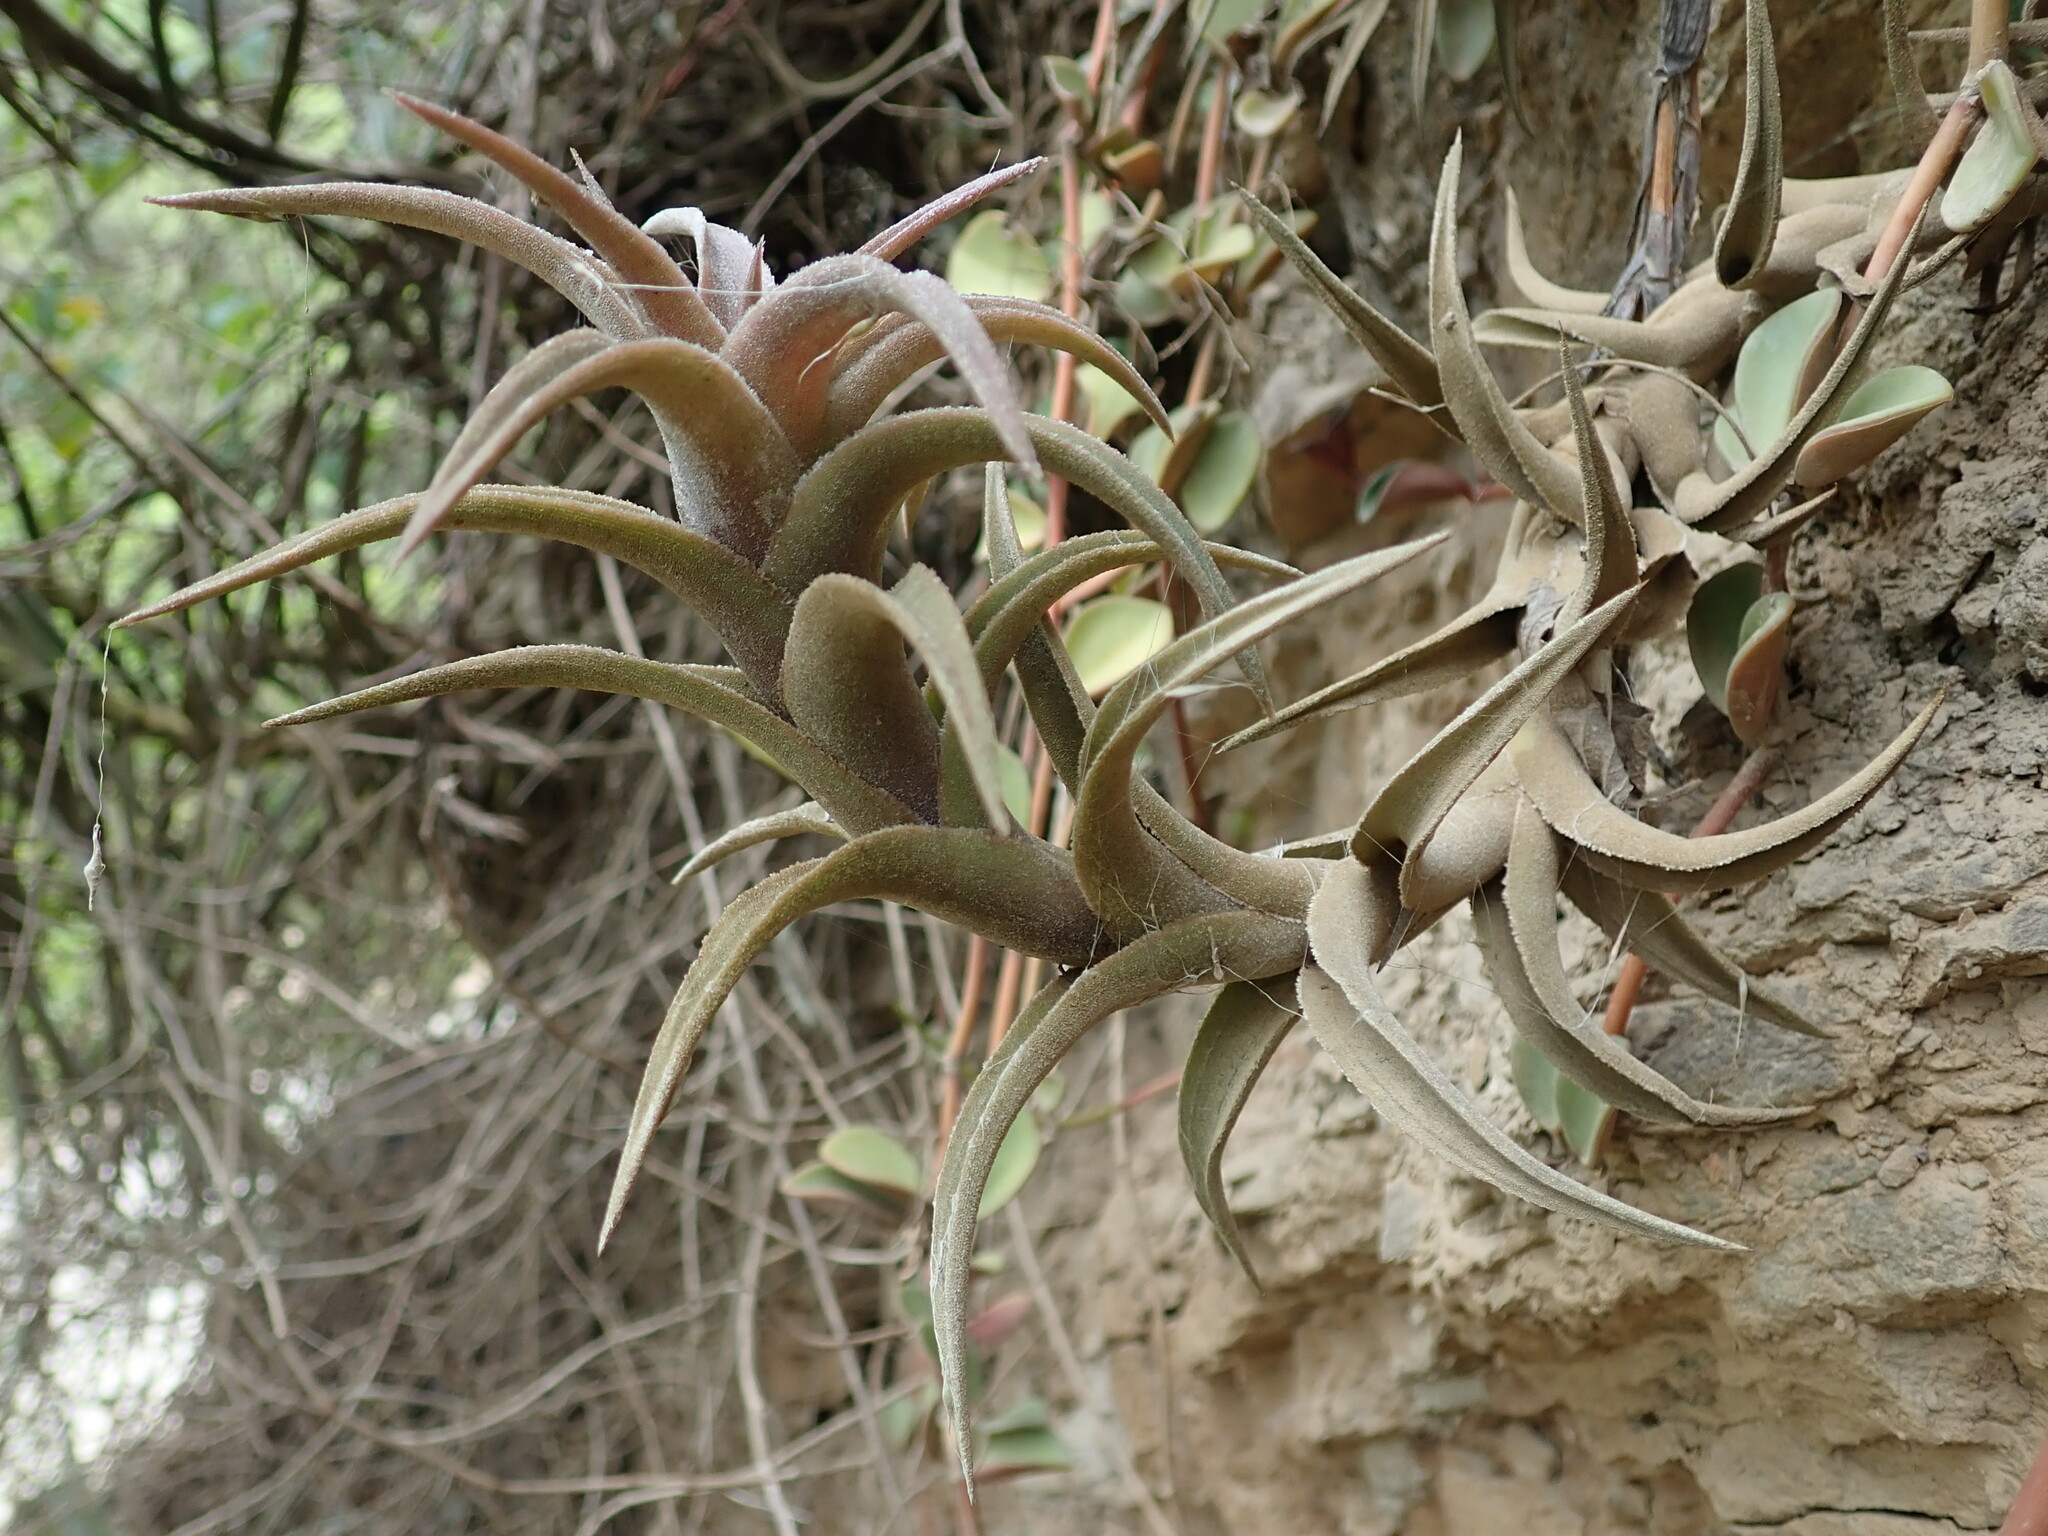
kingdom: Plantae
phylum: Tracheophyta
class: Liliopsida
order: Poales
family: Bromeliaceae
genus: Tillandsia
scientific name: Tillandsia edithae
